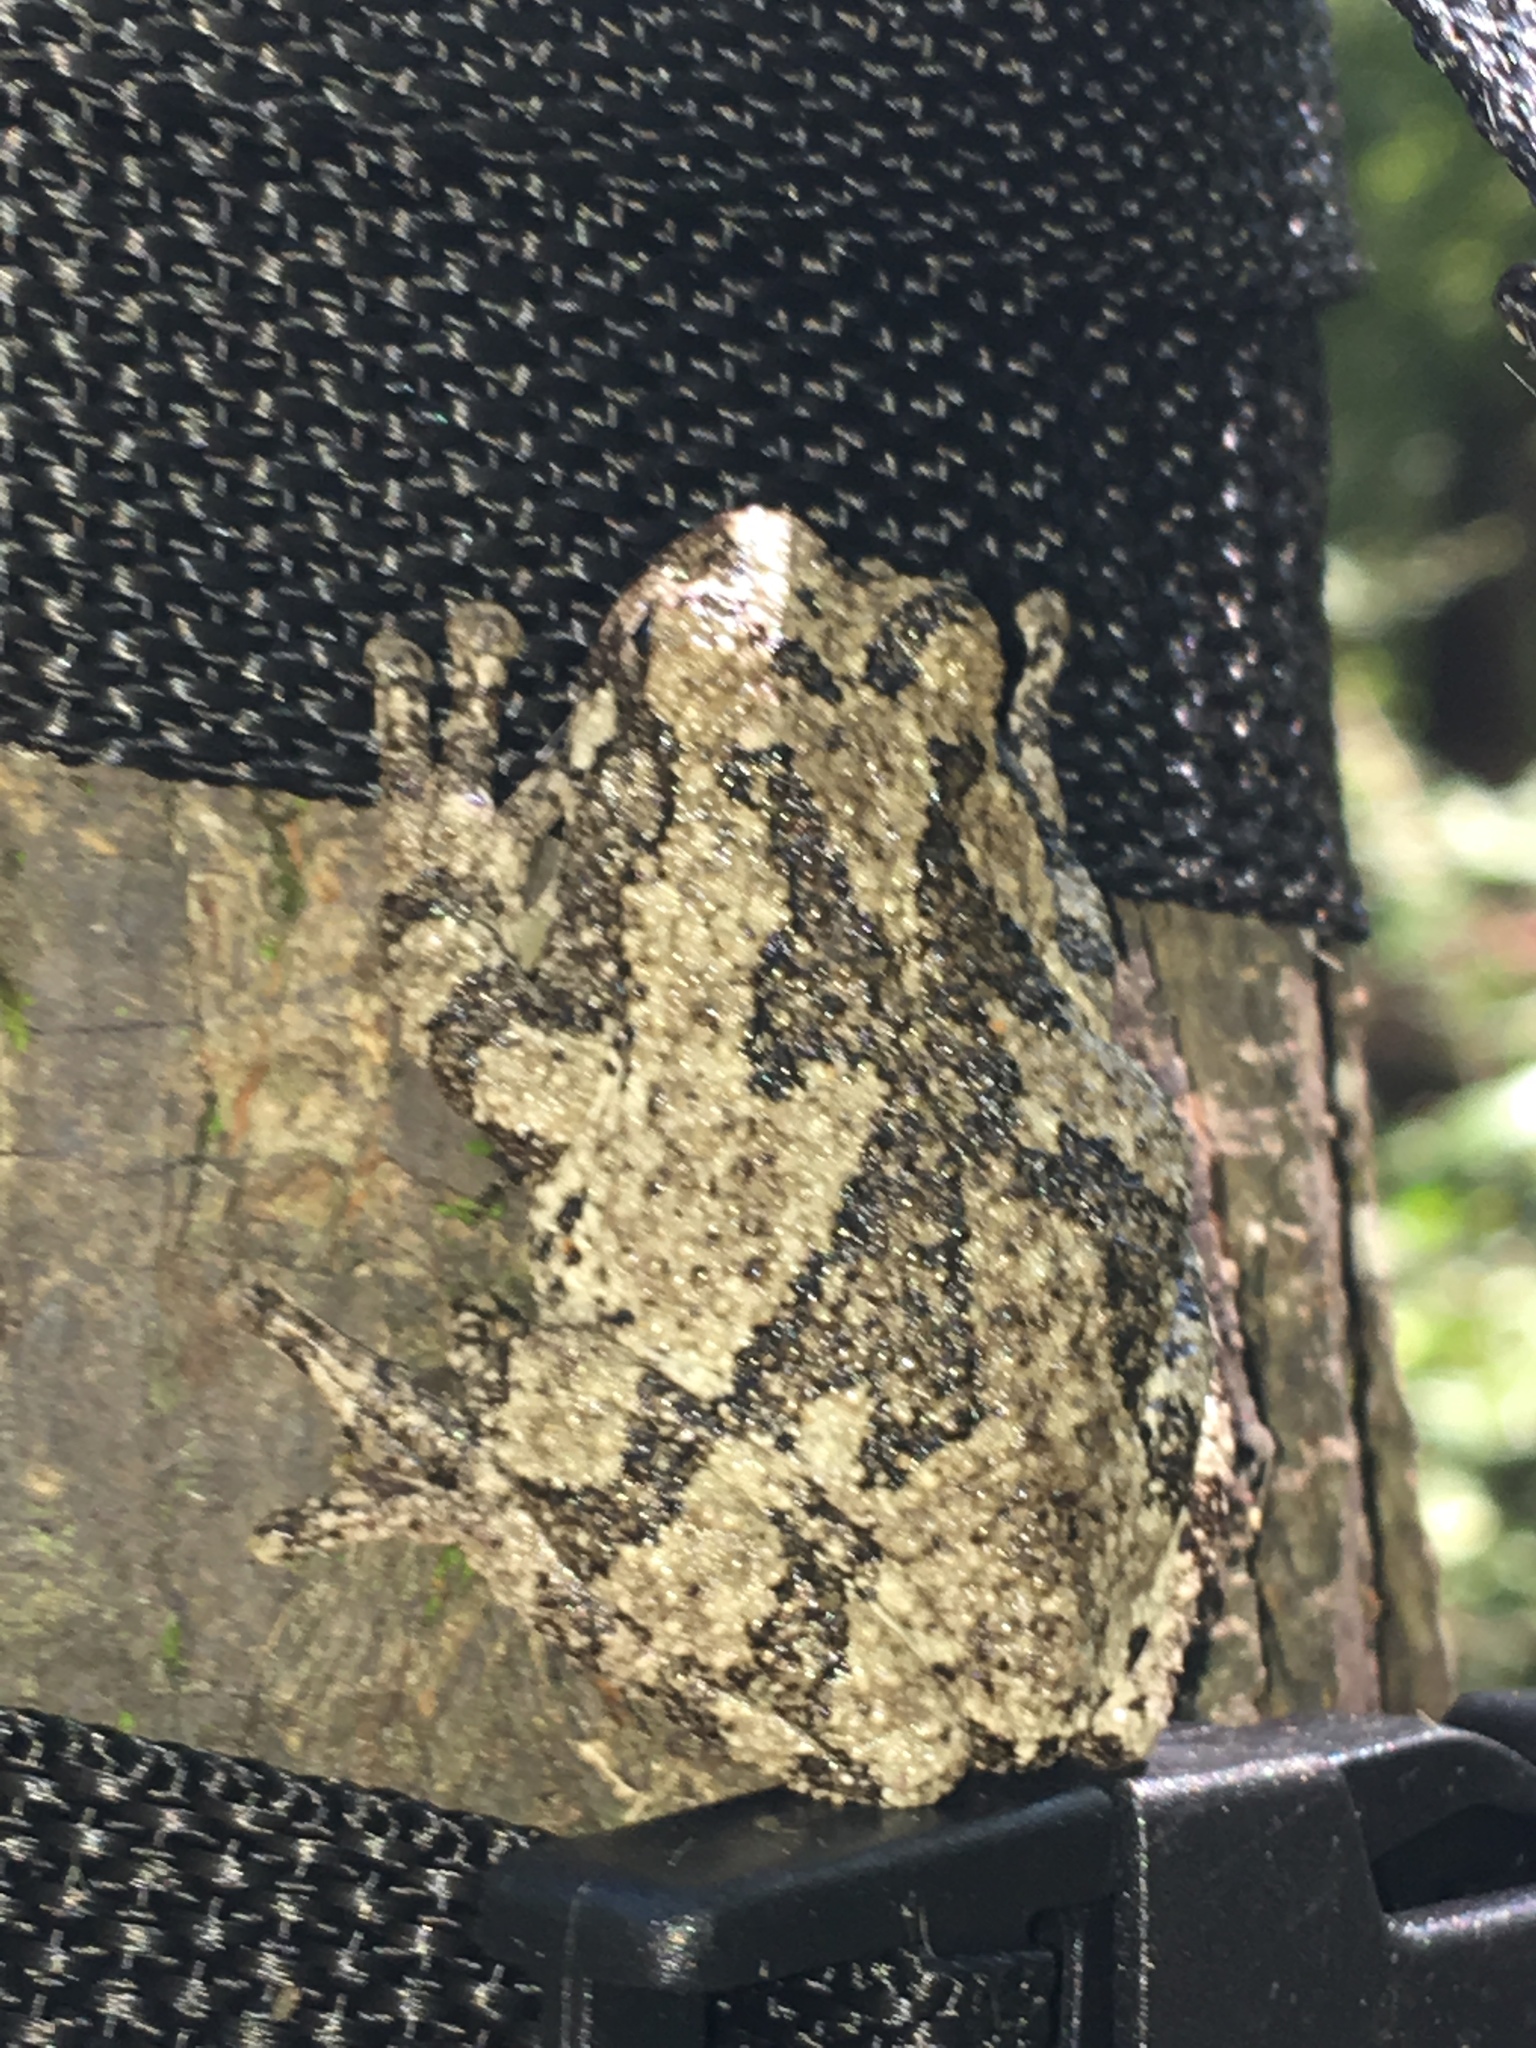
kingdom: Animalia
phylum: Chordata
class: Amphibia
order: Anura
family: Hylidae
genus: Dryophytes
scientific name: Dryophytes chrysoscelis
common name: Cope's gray treefrog
